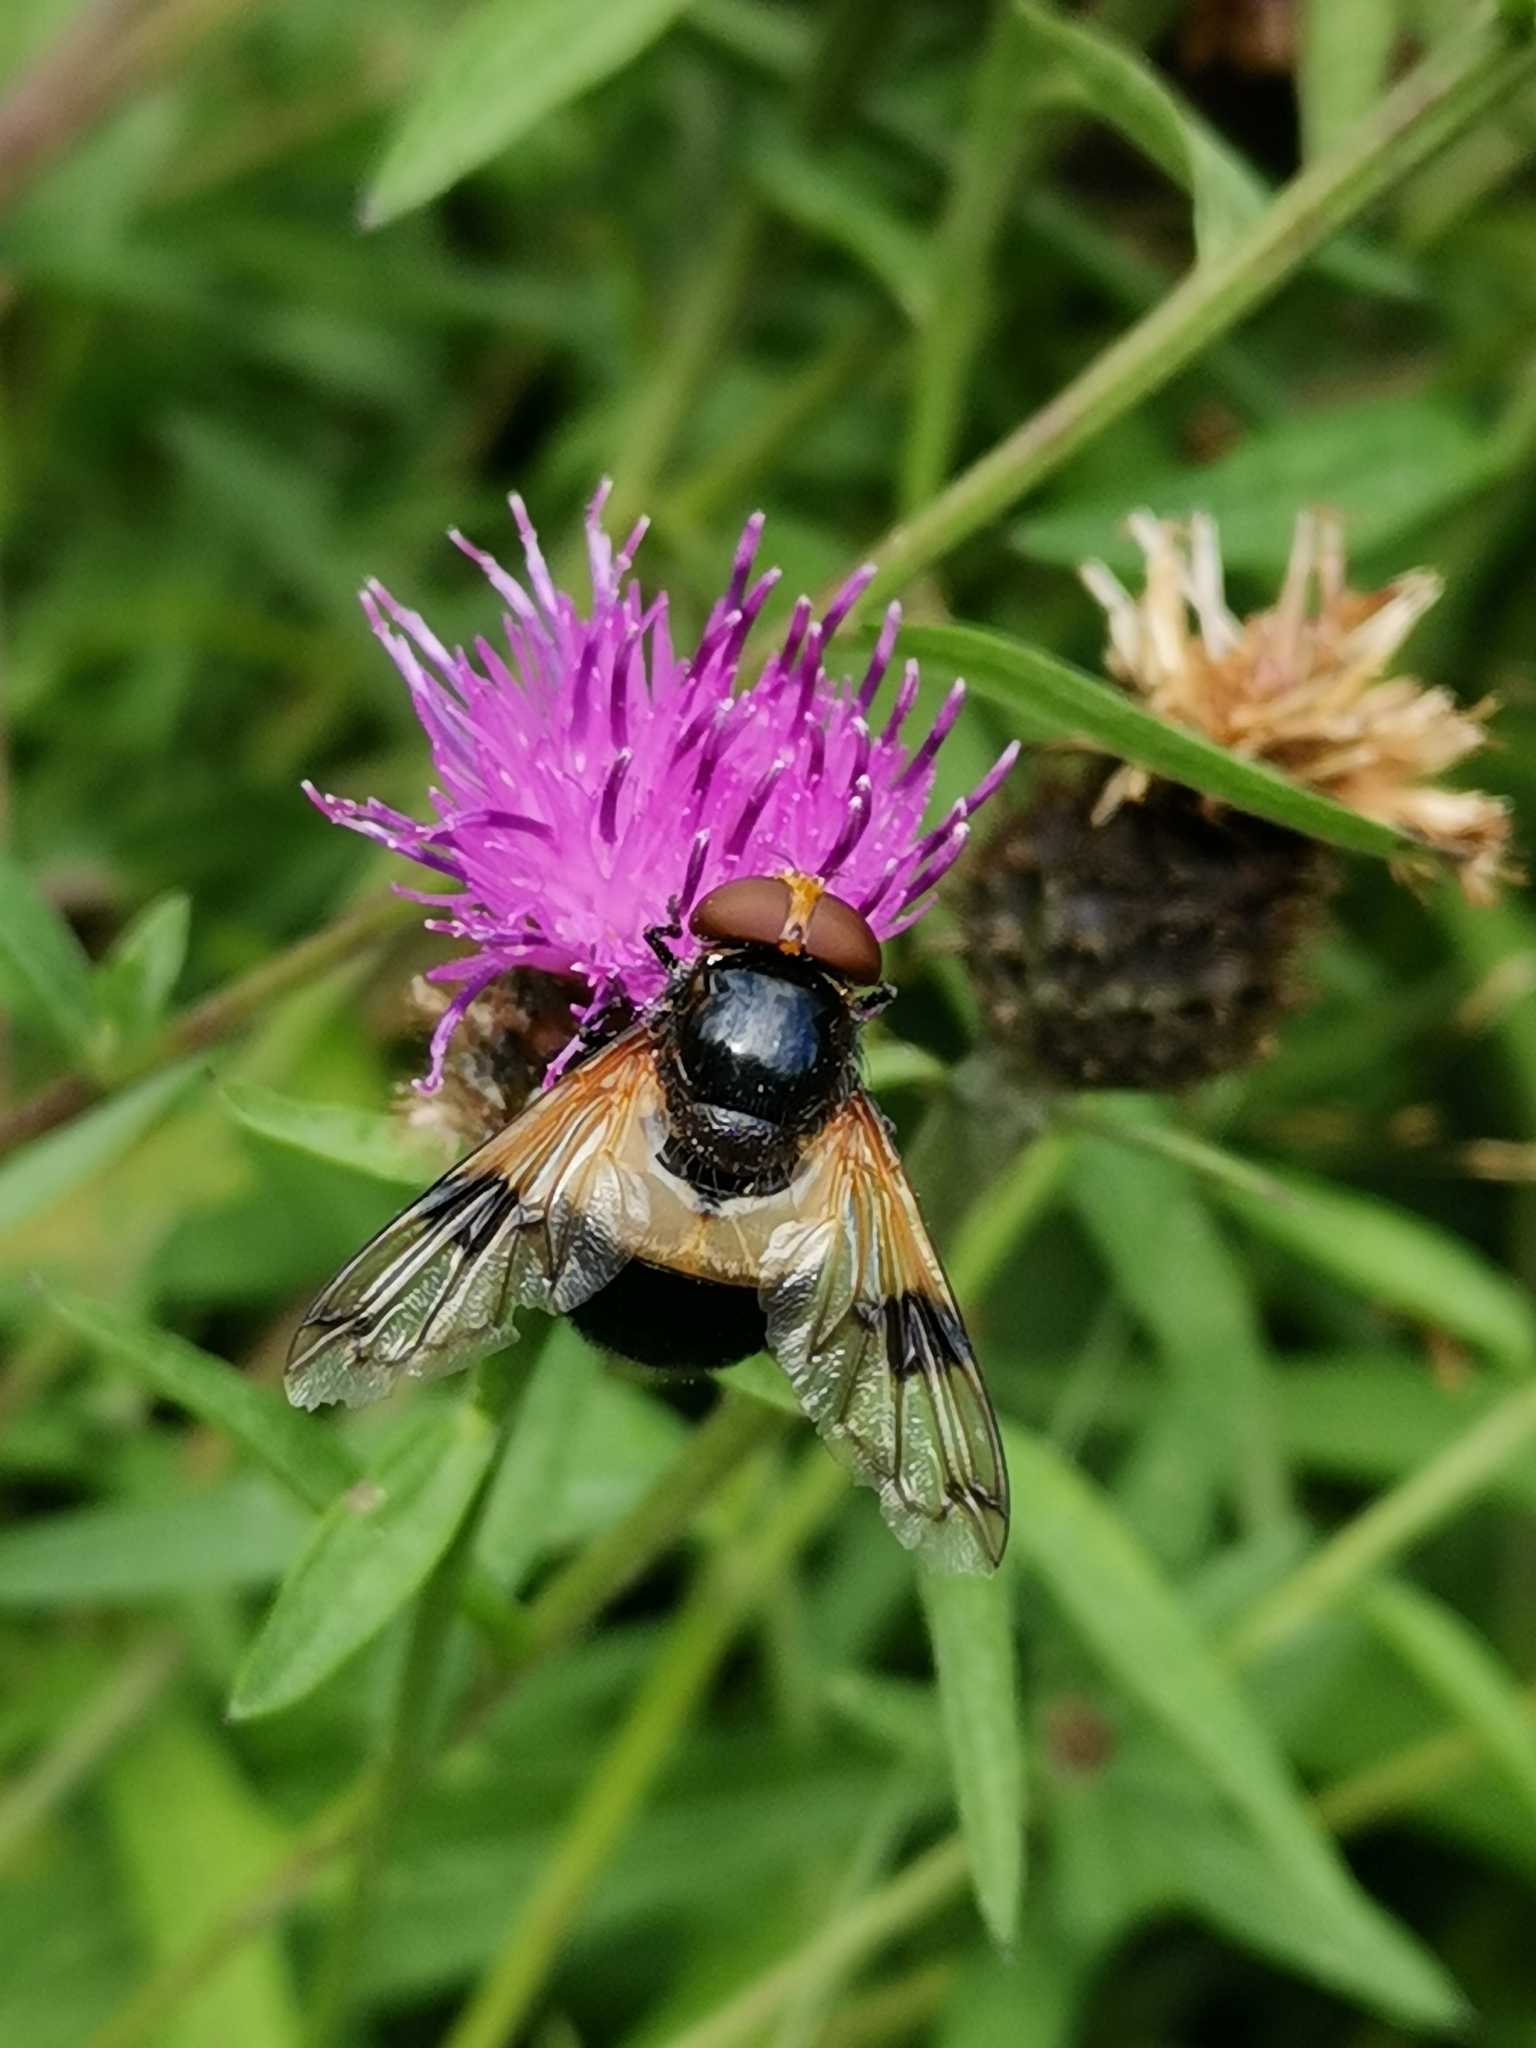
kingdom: Animalia
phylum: Arthropoda
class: Insecta
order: Diptera
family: Syrphidae
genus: Volucella
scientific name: Volucella pellucens
